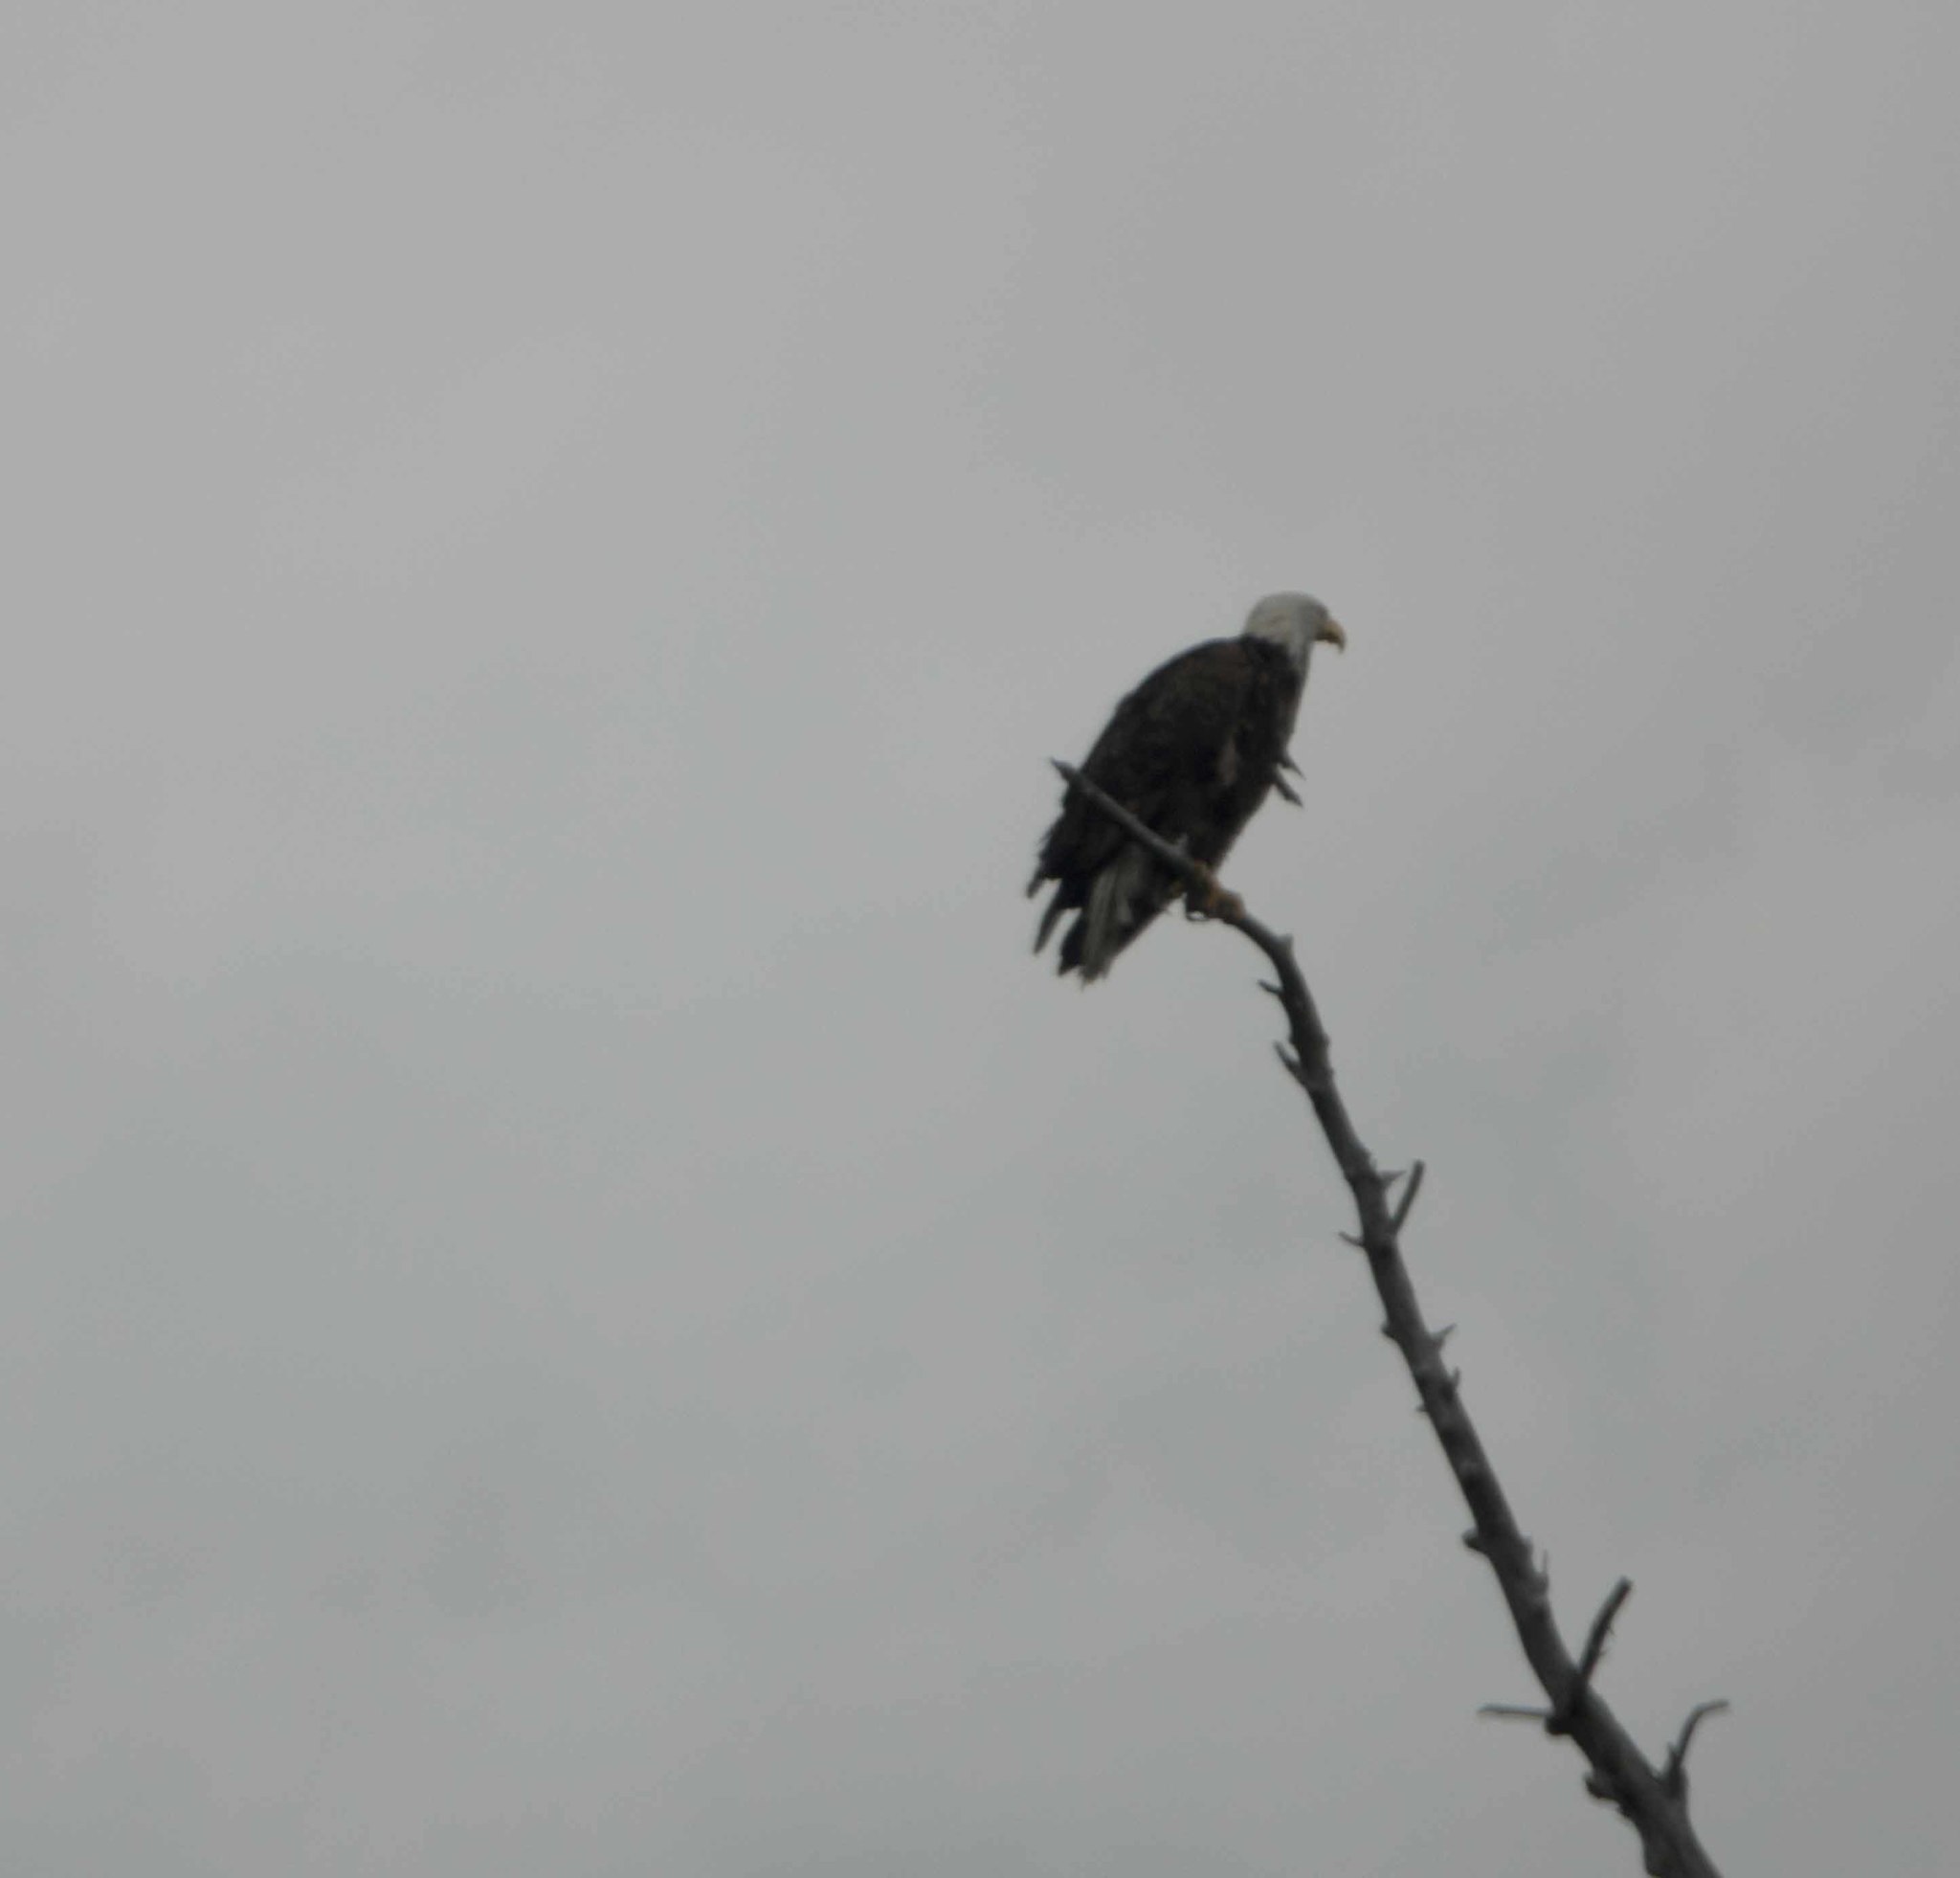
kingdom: Animalia
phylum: Chordata
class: Aves
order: Accipitriformes
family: Accipitridae
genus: Haliaeetus
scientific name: Haliaeetus leucocephalus
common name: Bald eagle
